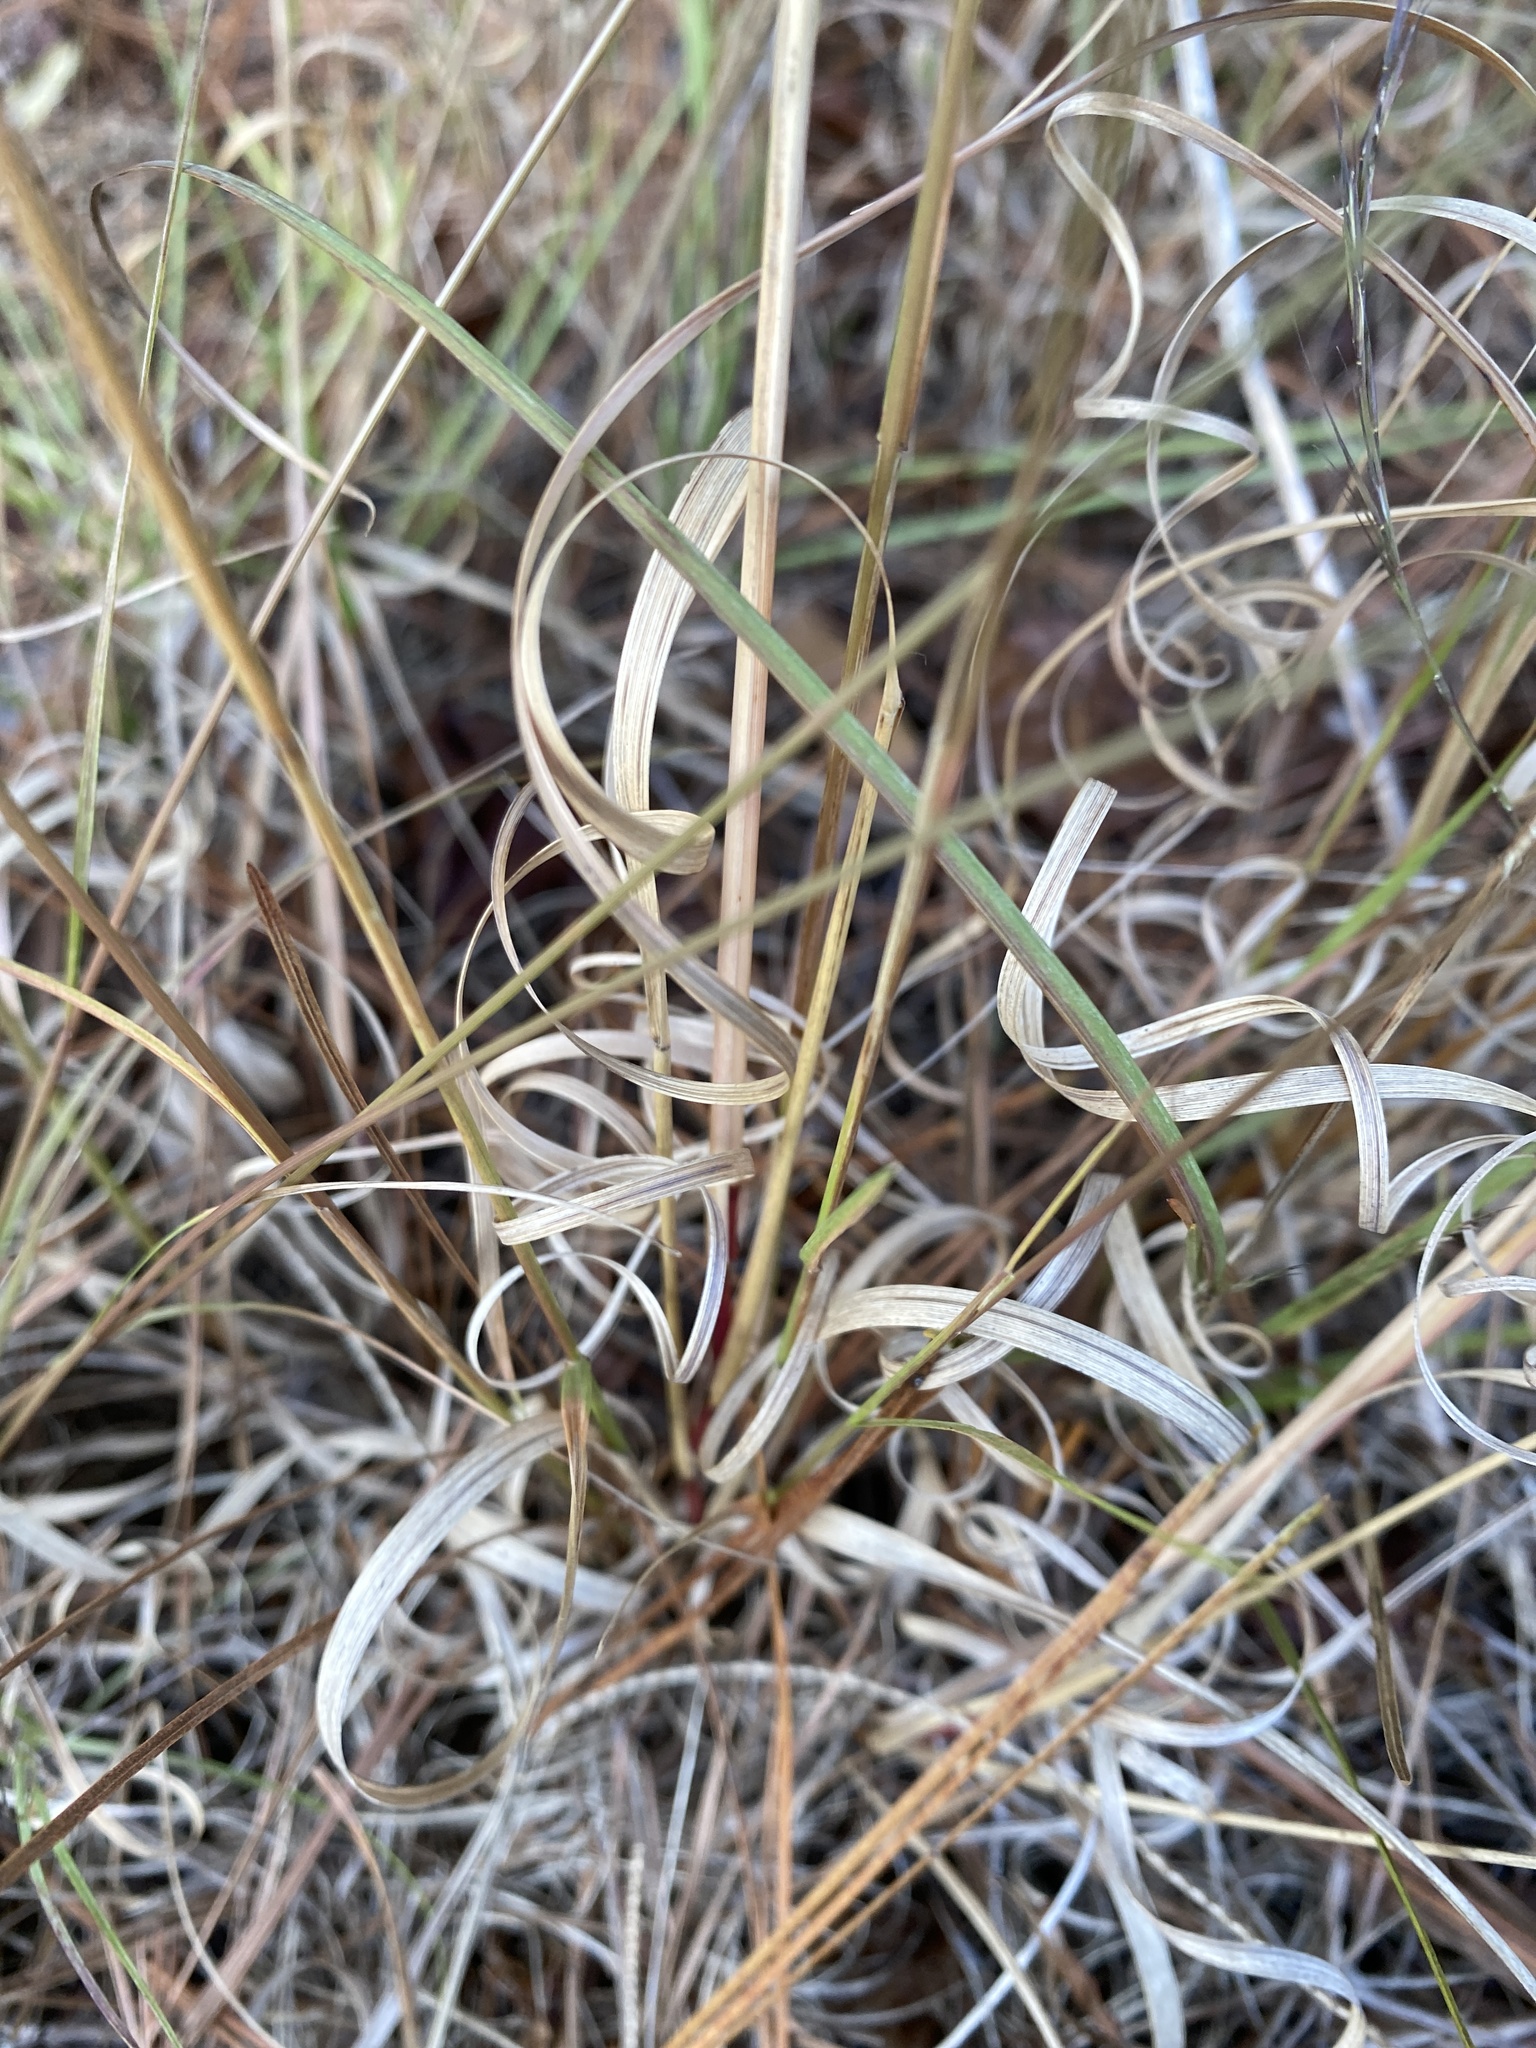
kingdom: Plantae
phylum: Tracheophyta
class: Liliopsida
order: Poales
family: Poaceae
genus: Aristida
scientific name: Aristida purpurascens
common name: Arrow-feather
